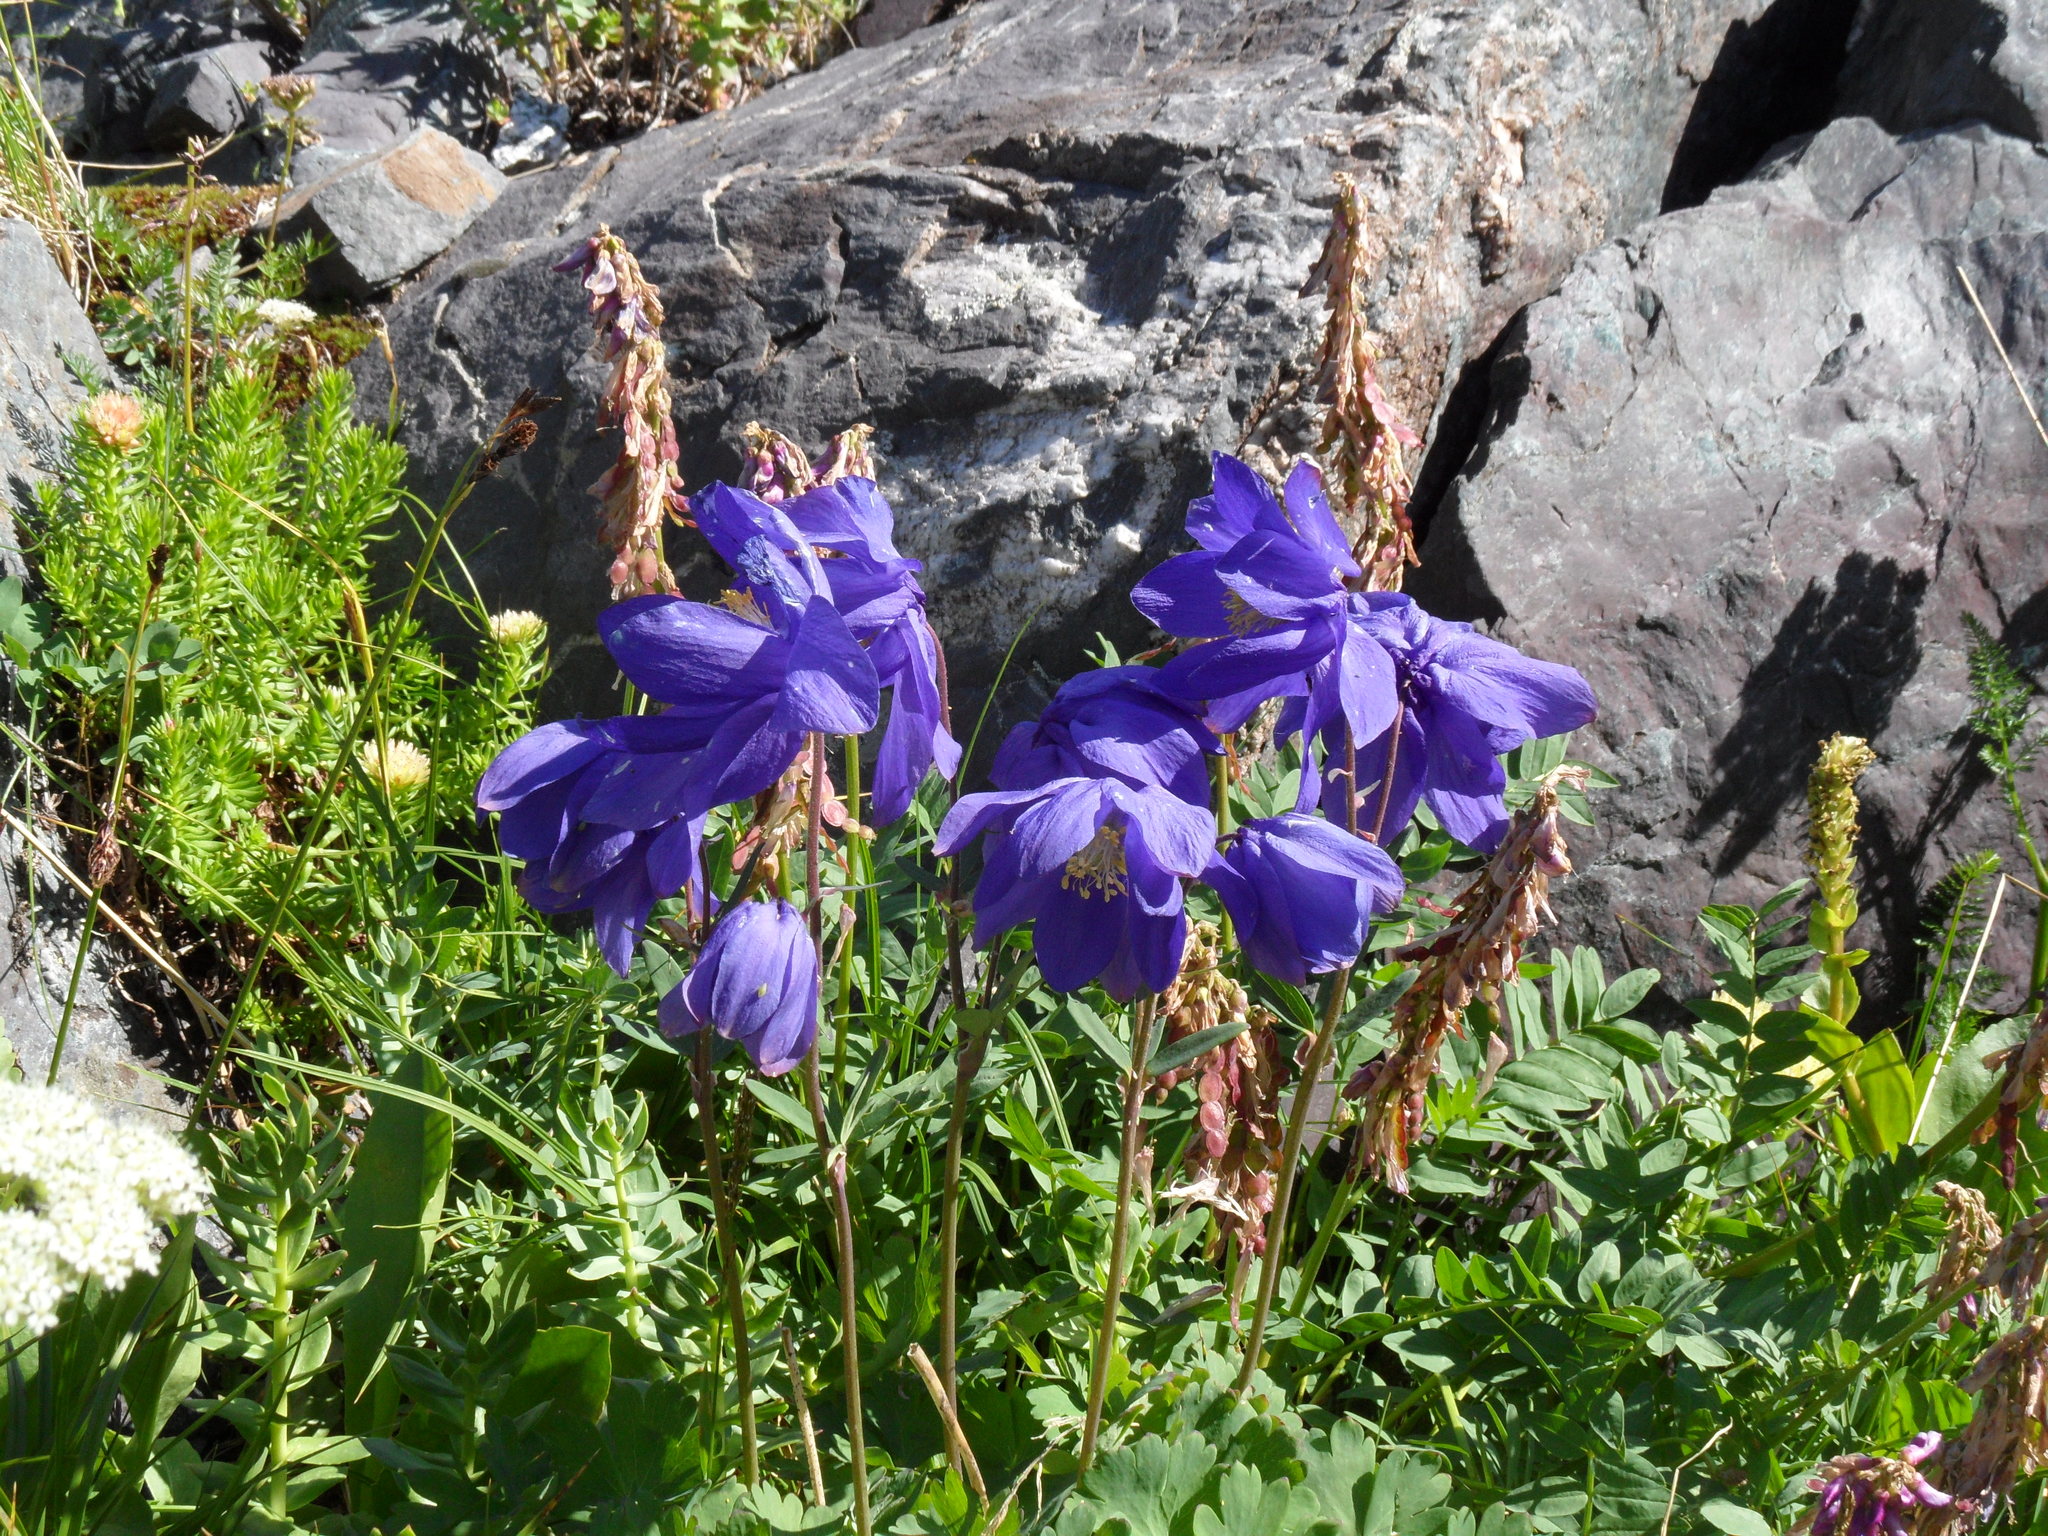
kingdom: Plantae
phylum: Tracheophyta
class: Magnoliopsida
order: Ranunculales
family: Ranunculaceae
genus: Aquilegia
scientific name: Aquilegia glandulosa
